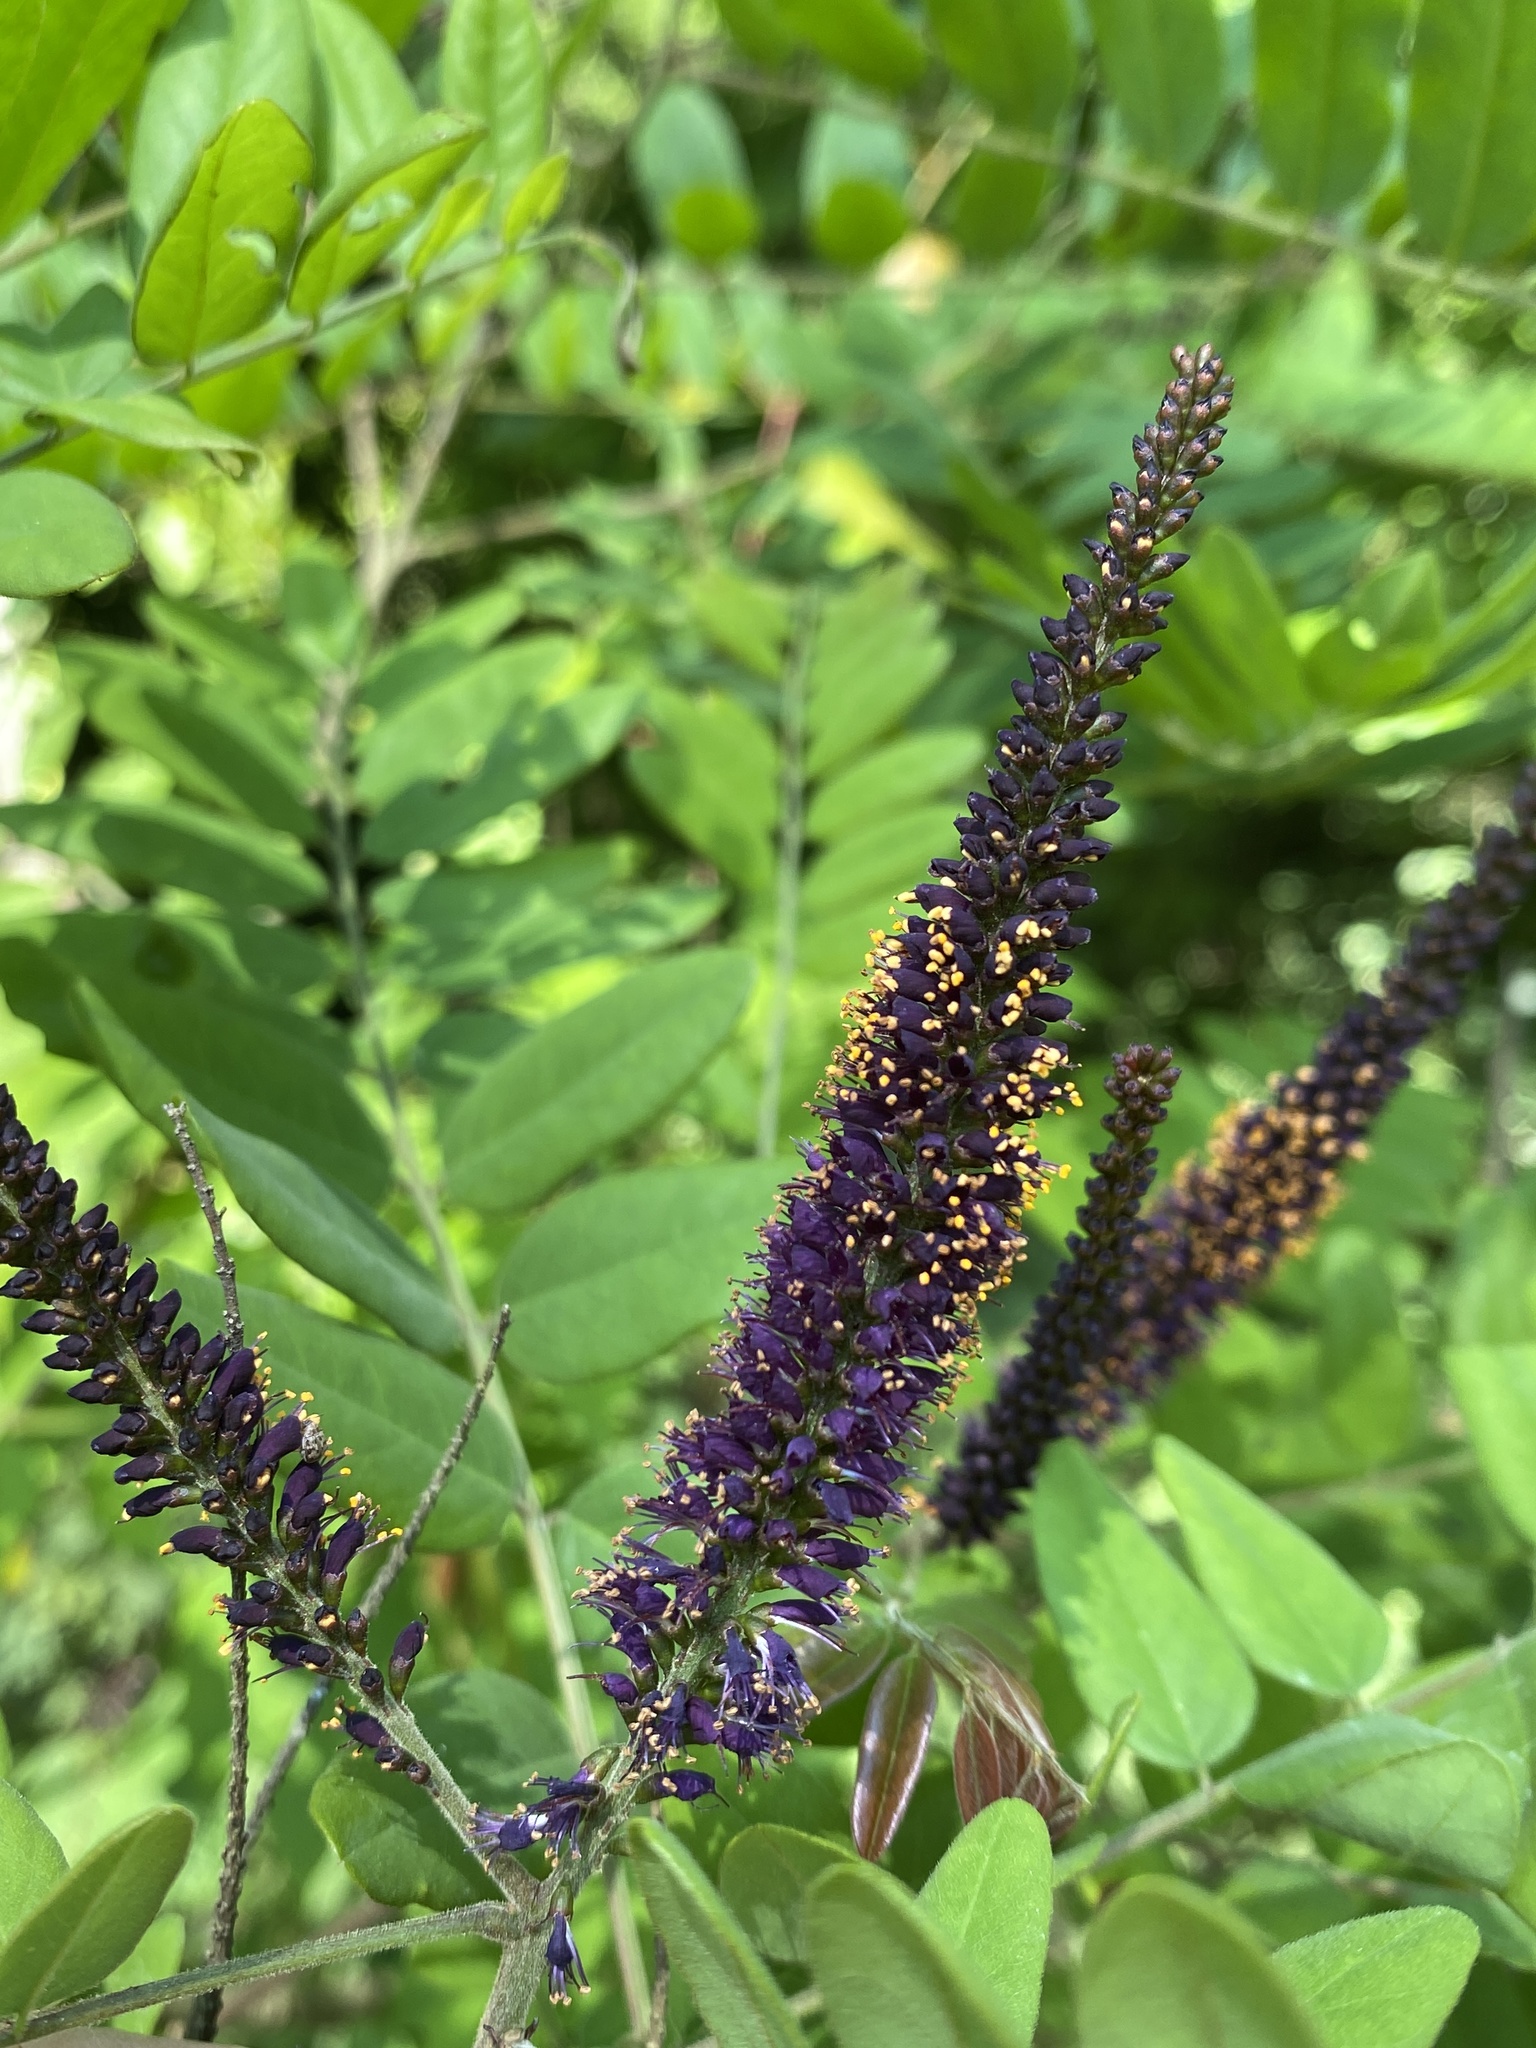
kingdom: Plantae
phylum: Tracheophyta
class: Magnoliopsida
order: Fabales
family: Fabaceae
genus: Amorpha
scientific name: Amorpha fruticosa
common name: False indigo
